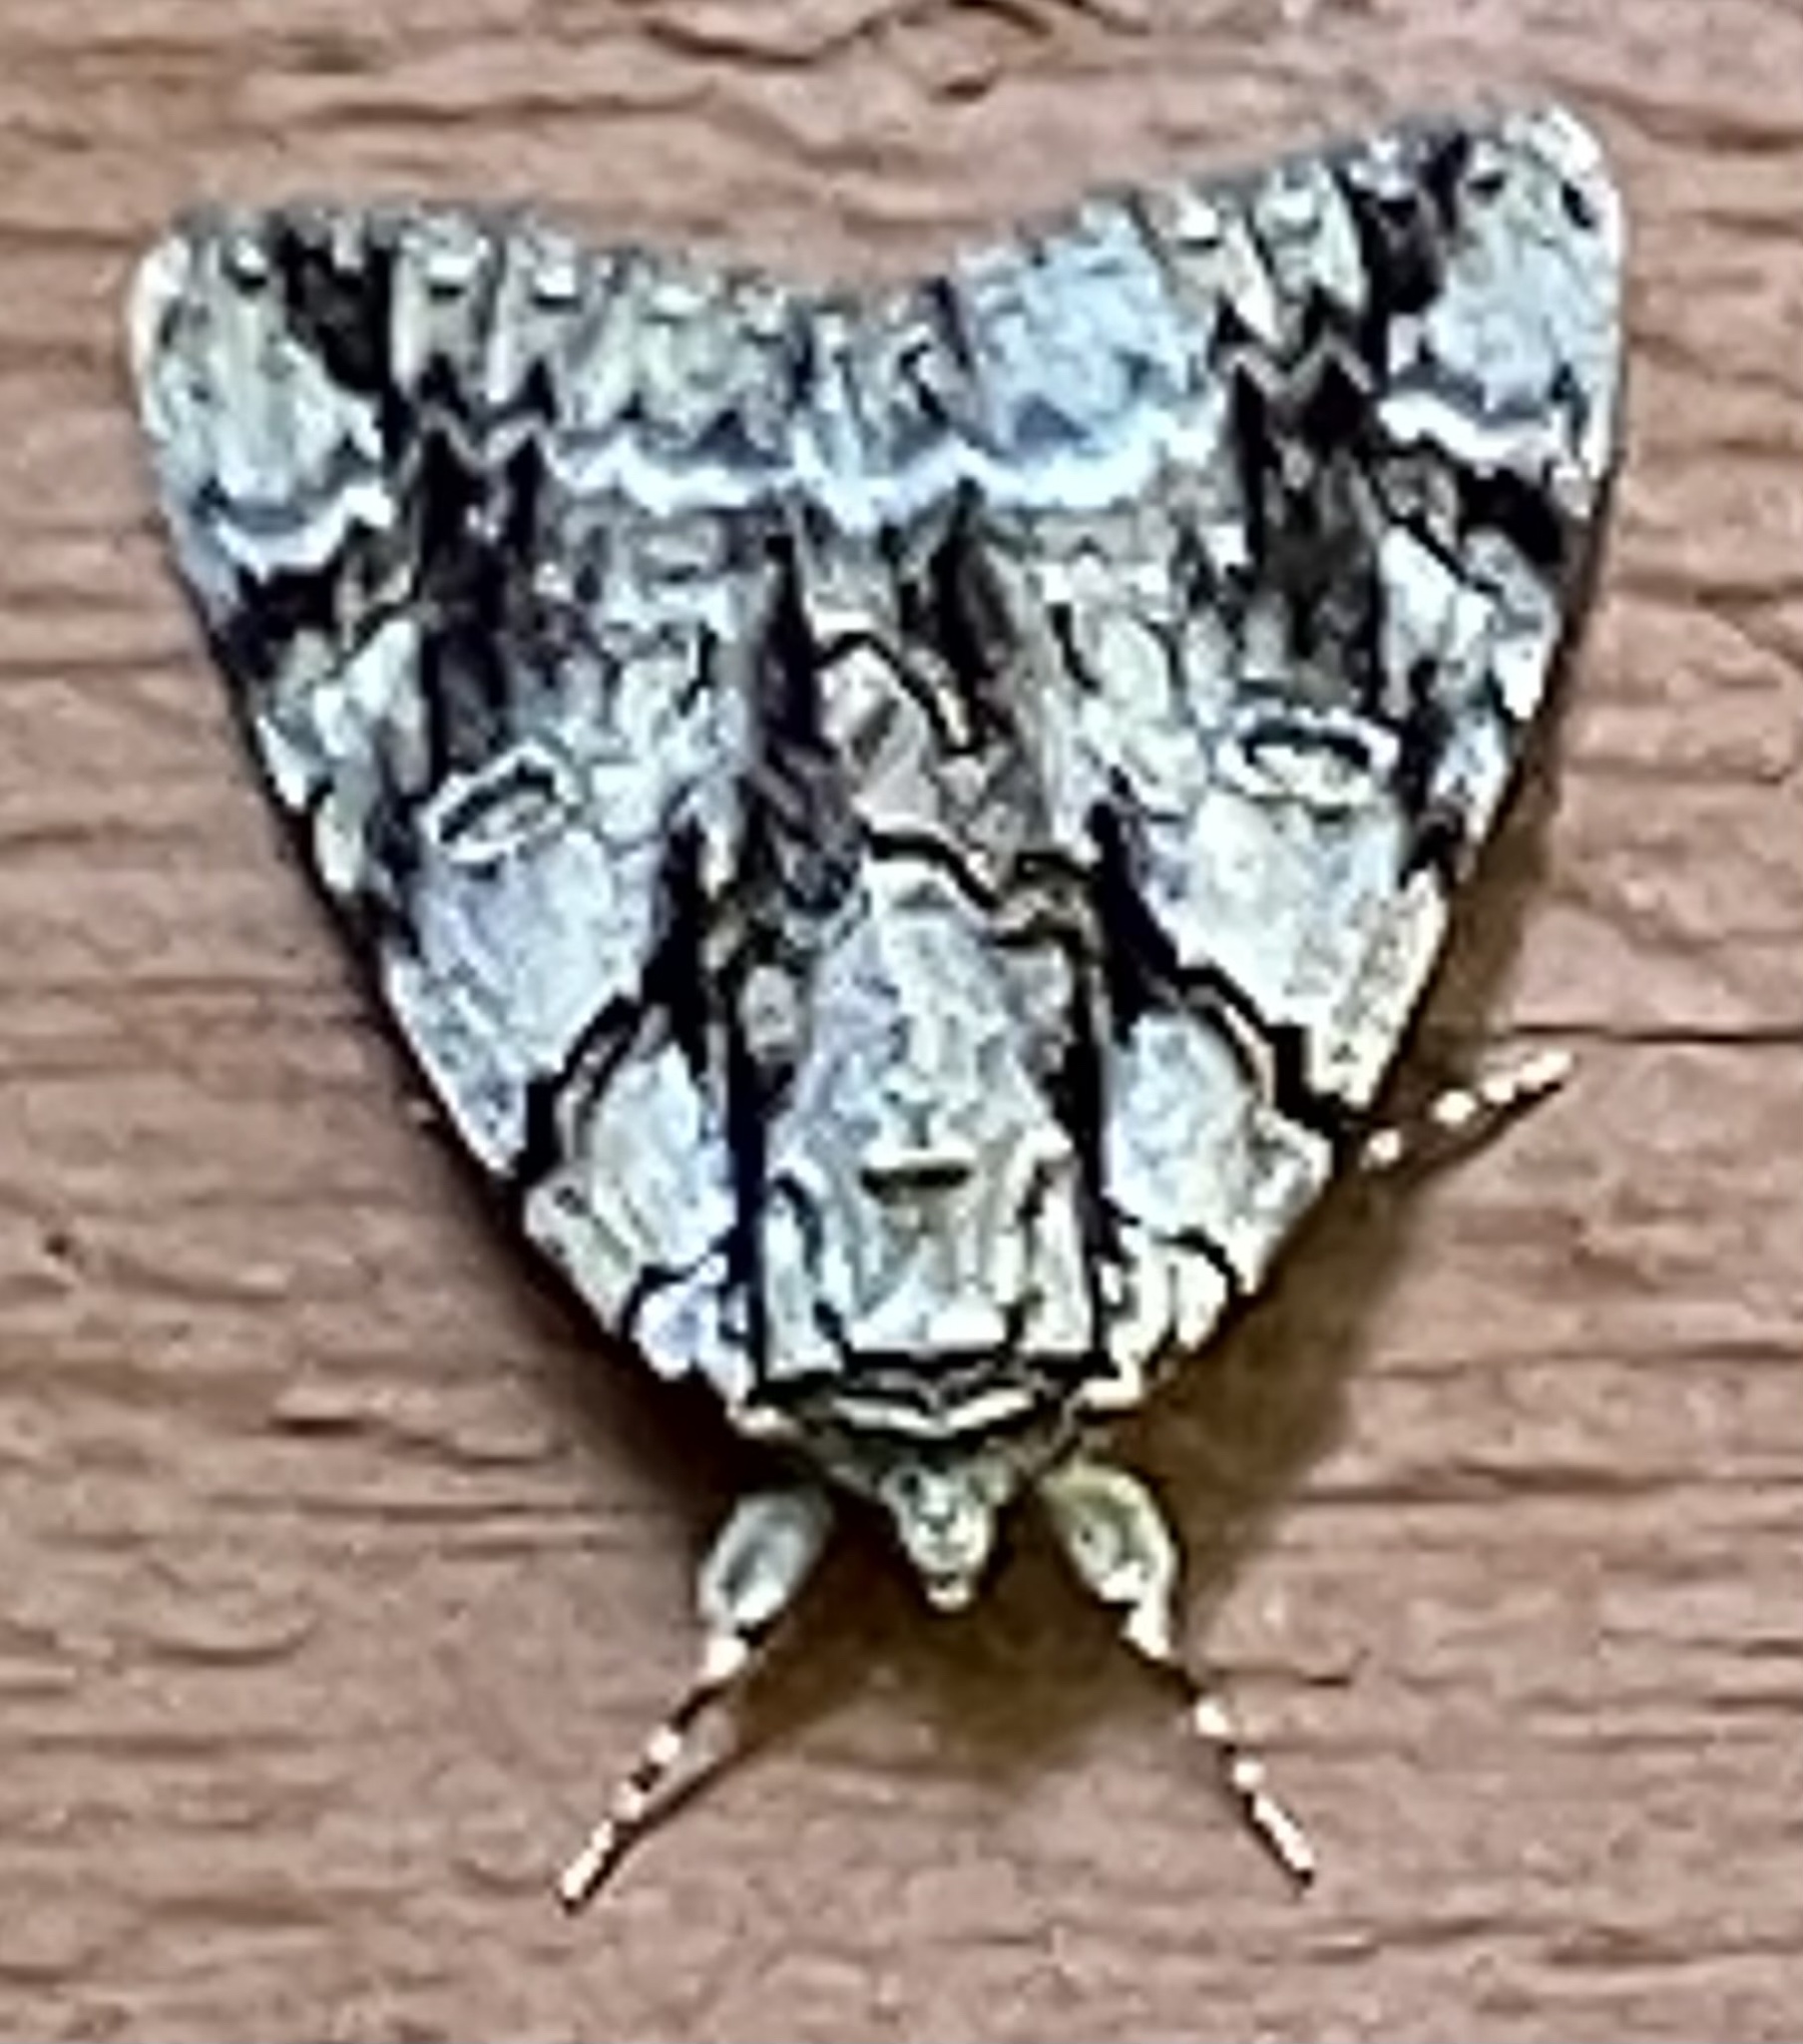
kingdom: Animalia
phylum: Arthropoda
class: Insecta
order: Lepidoptera
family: Erebidae
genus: Catocala
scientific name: Catocala vidua
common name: The widow
